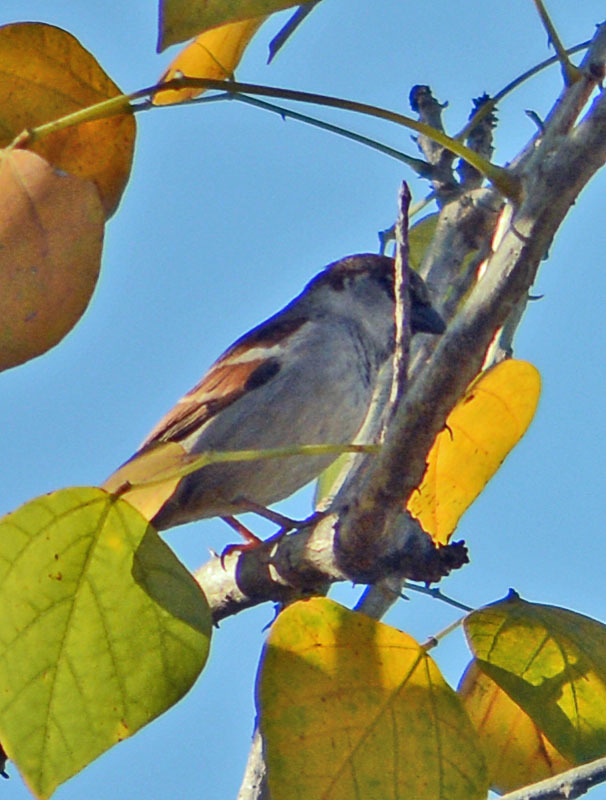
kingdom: Animalia
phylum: Chordata
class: Aves
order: Passeriformes
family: Passeridae
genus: Passer
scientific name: Passer domesticus
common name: House sparrow
